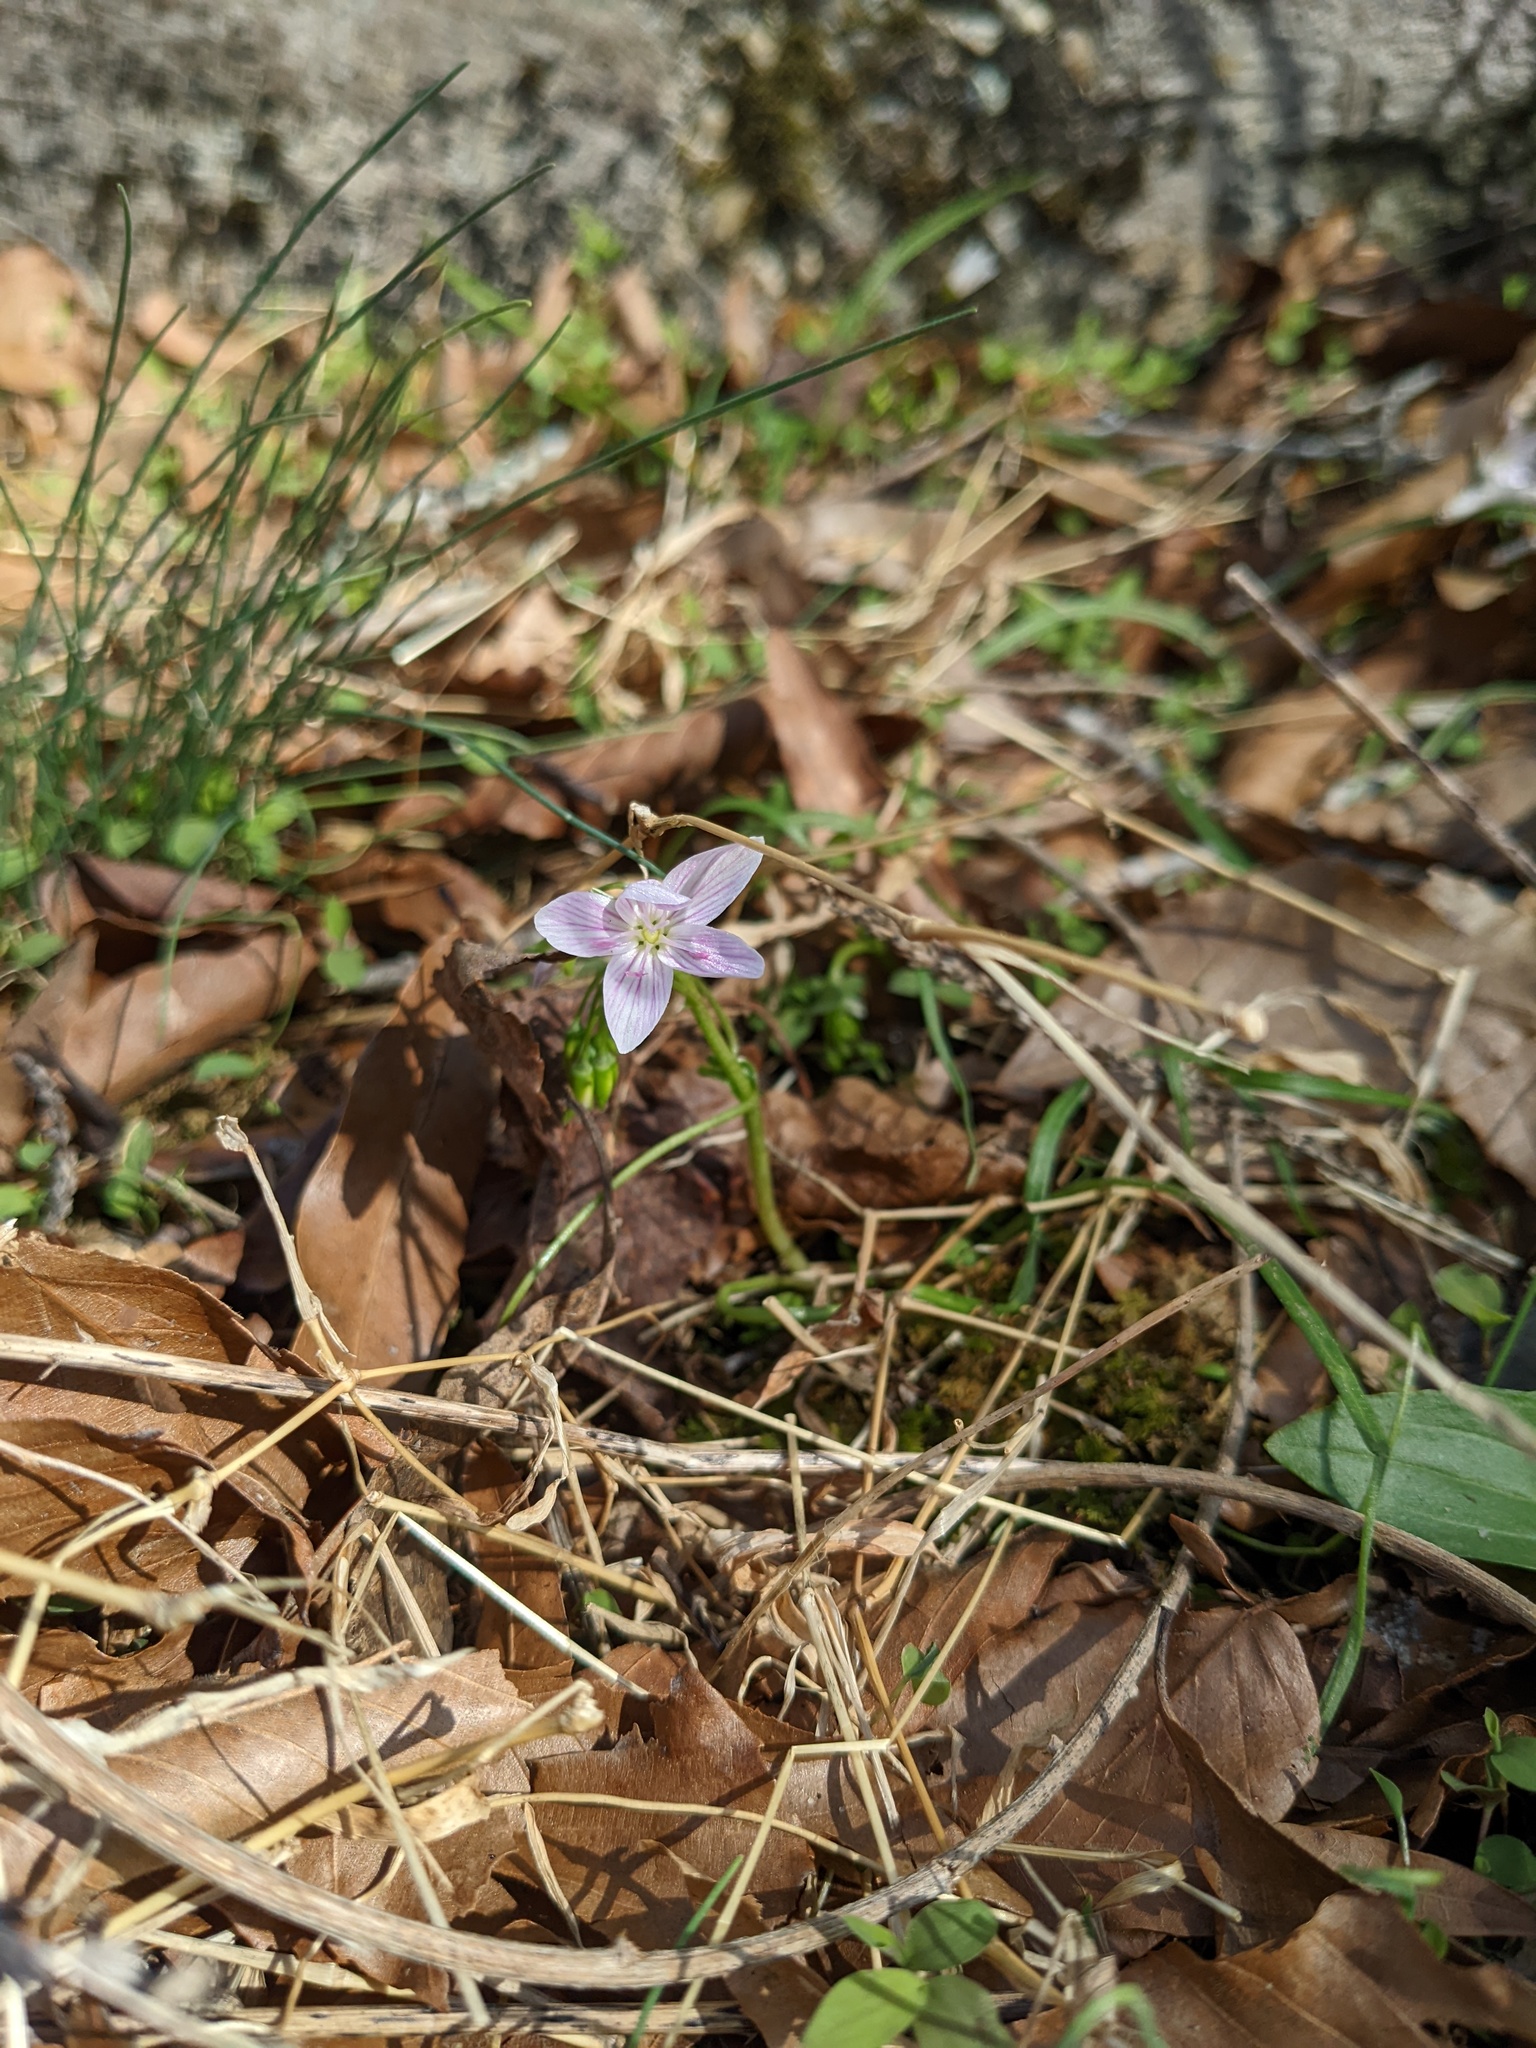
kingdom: Plantae
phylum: Tracheophyta
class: Magnoliopsida
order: Caryophyllales
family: Montiaceae
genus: Claytonia
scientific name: Claytonia virginica
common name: Virginia springbeauty
